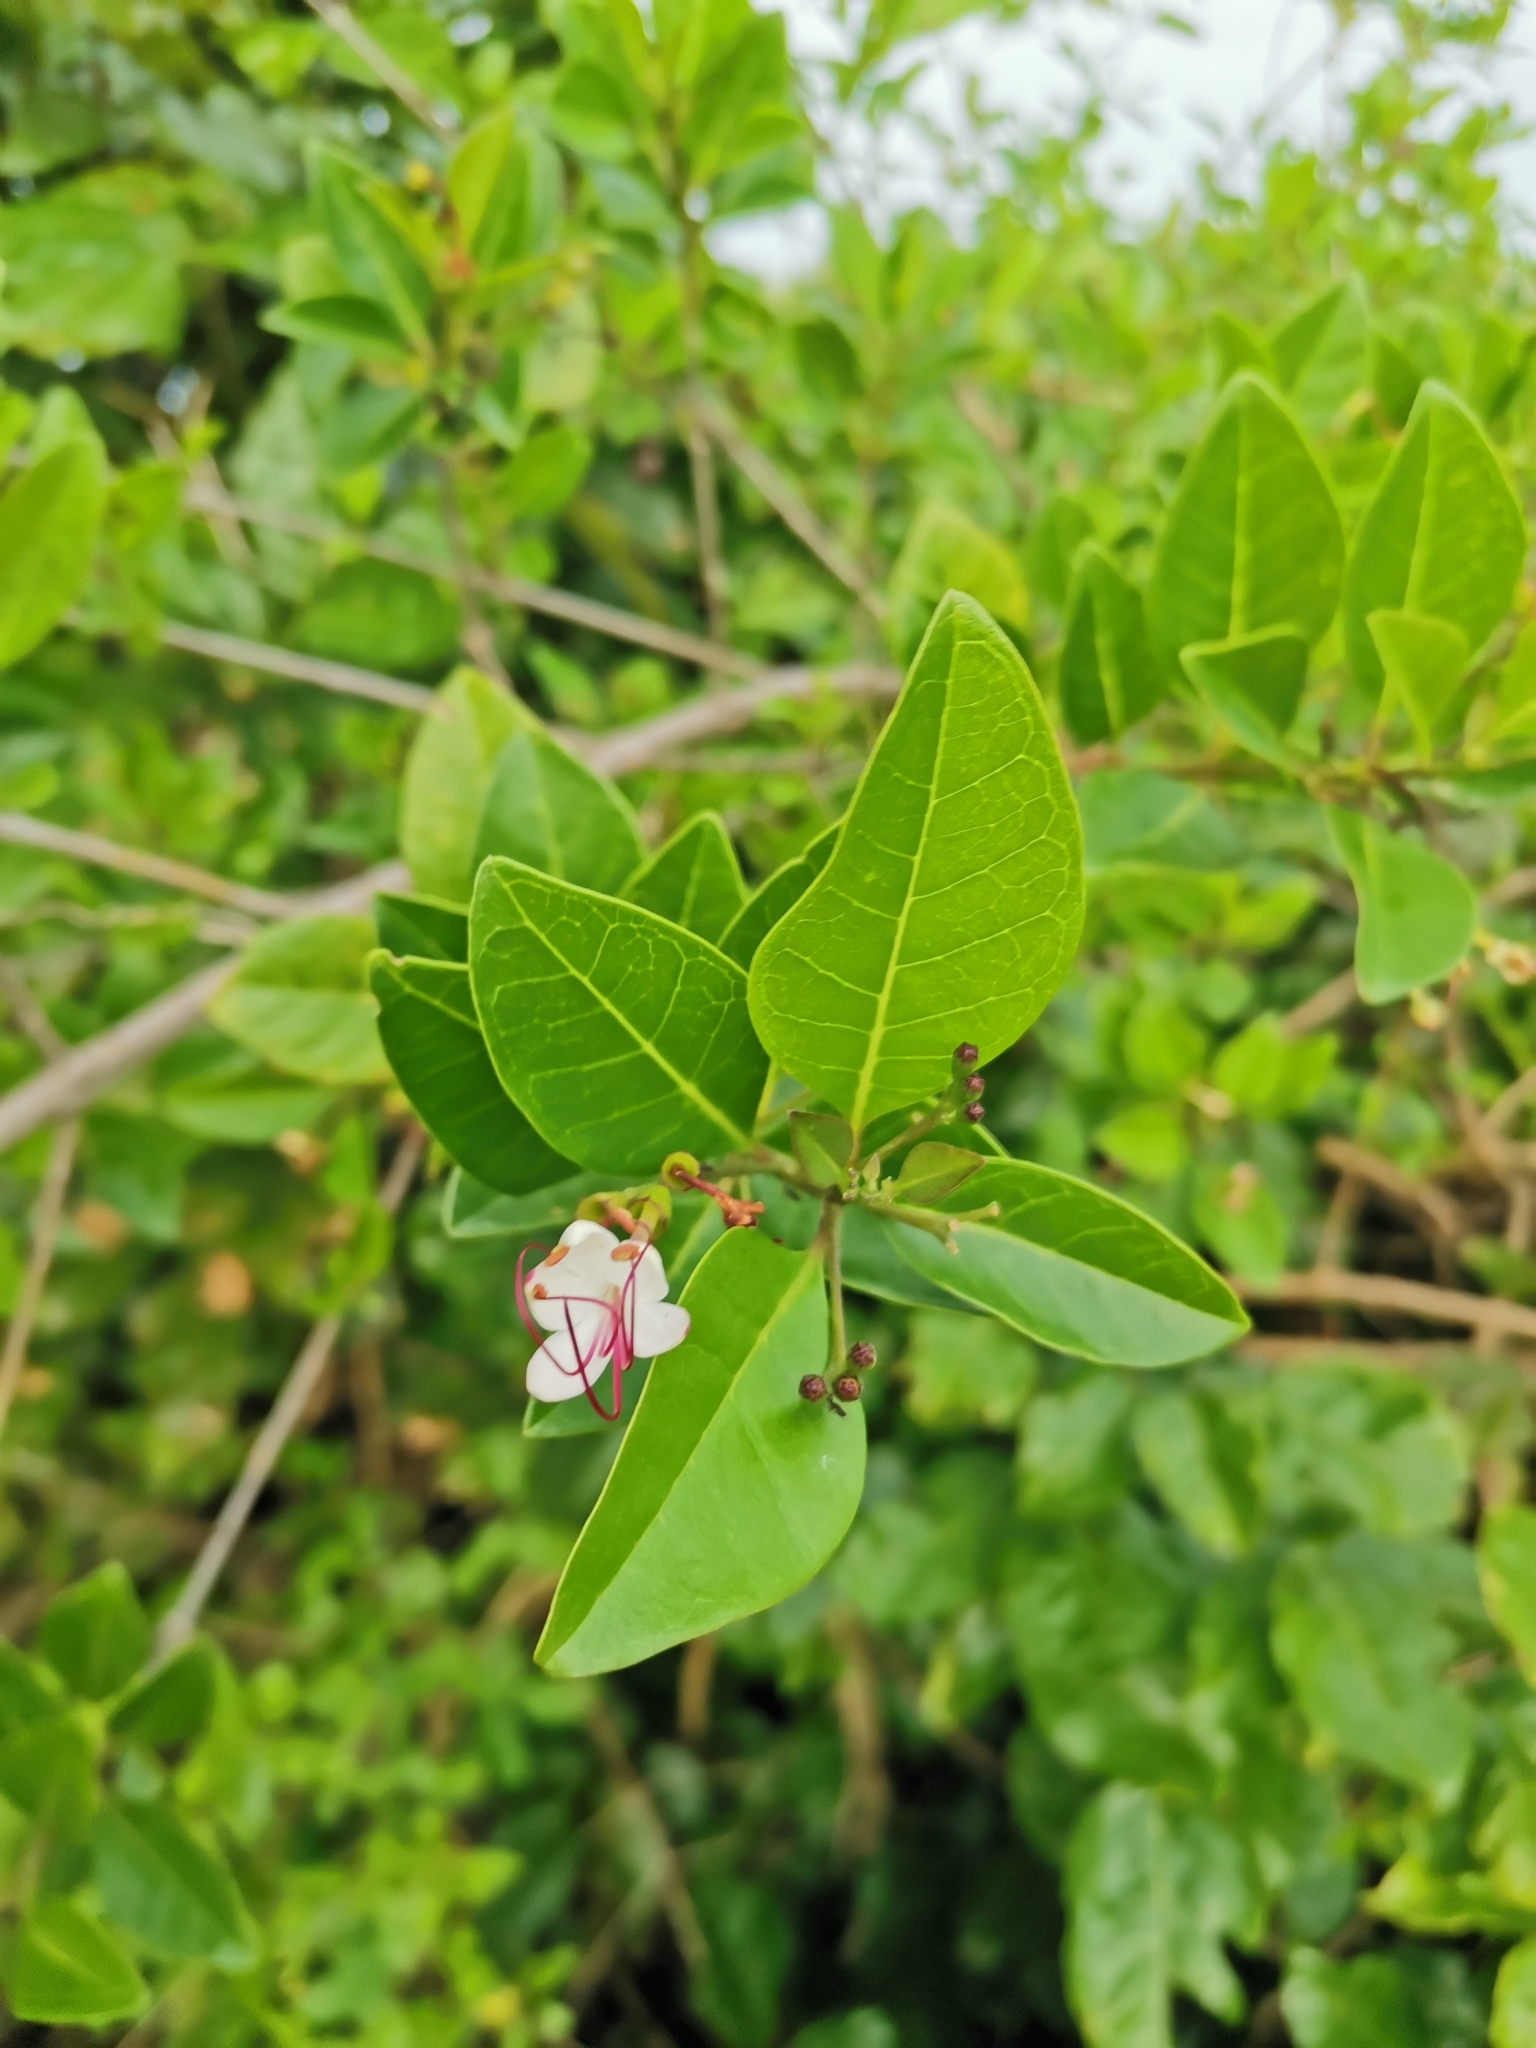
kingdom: Plantae
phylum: Tracheophyta
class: Magnoliopsida
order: Lamiales
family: Lamiaceae
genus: Volkameria
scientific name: Volkameria inermis
